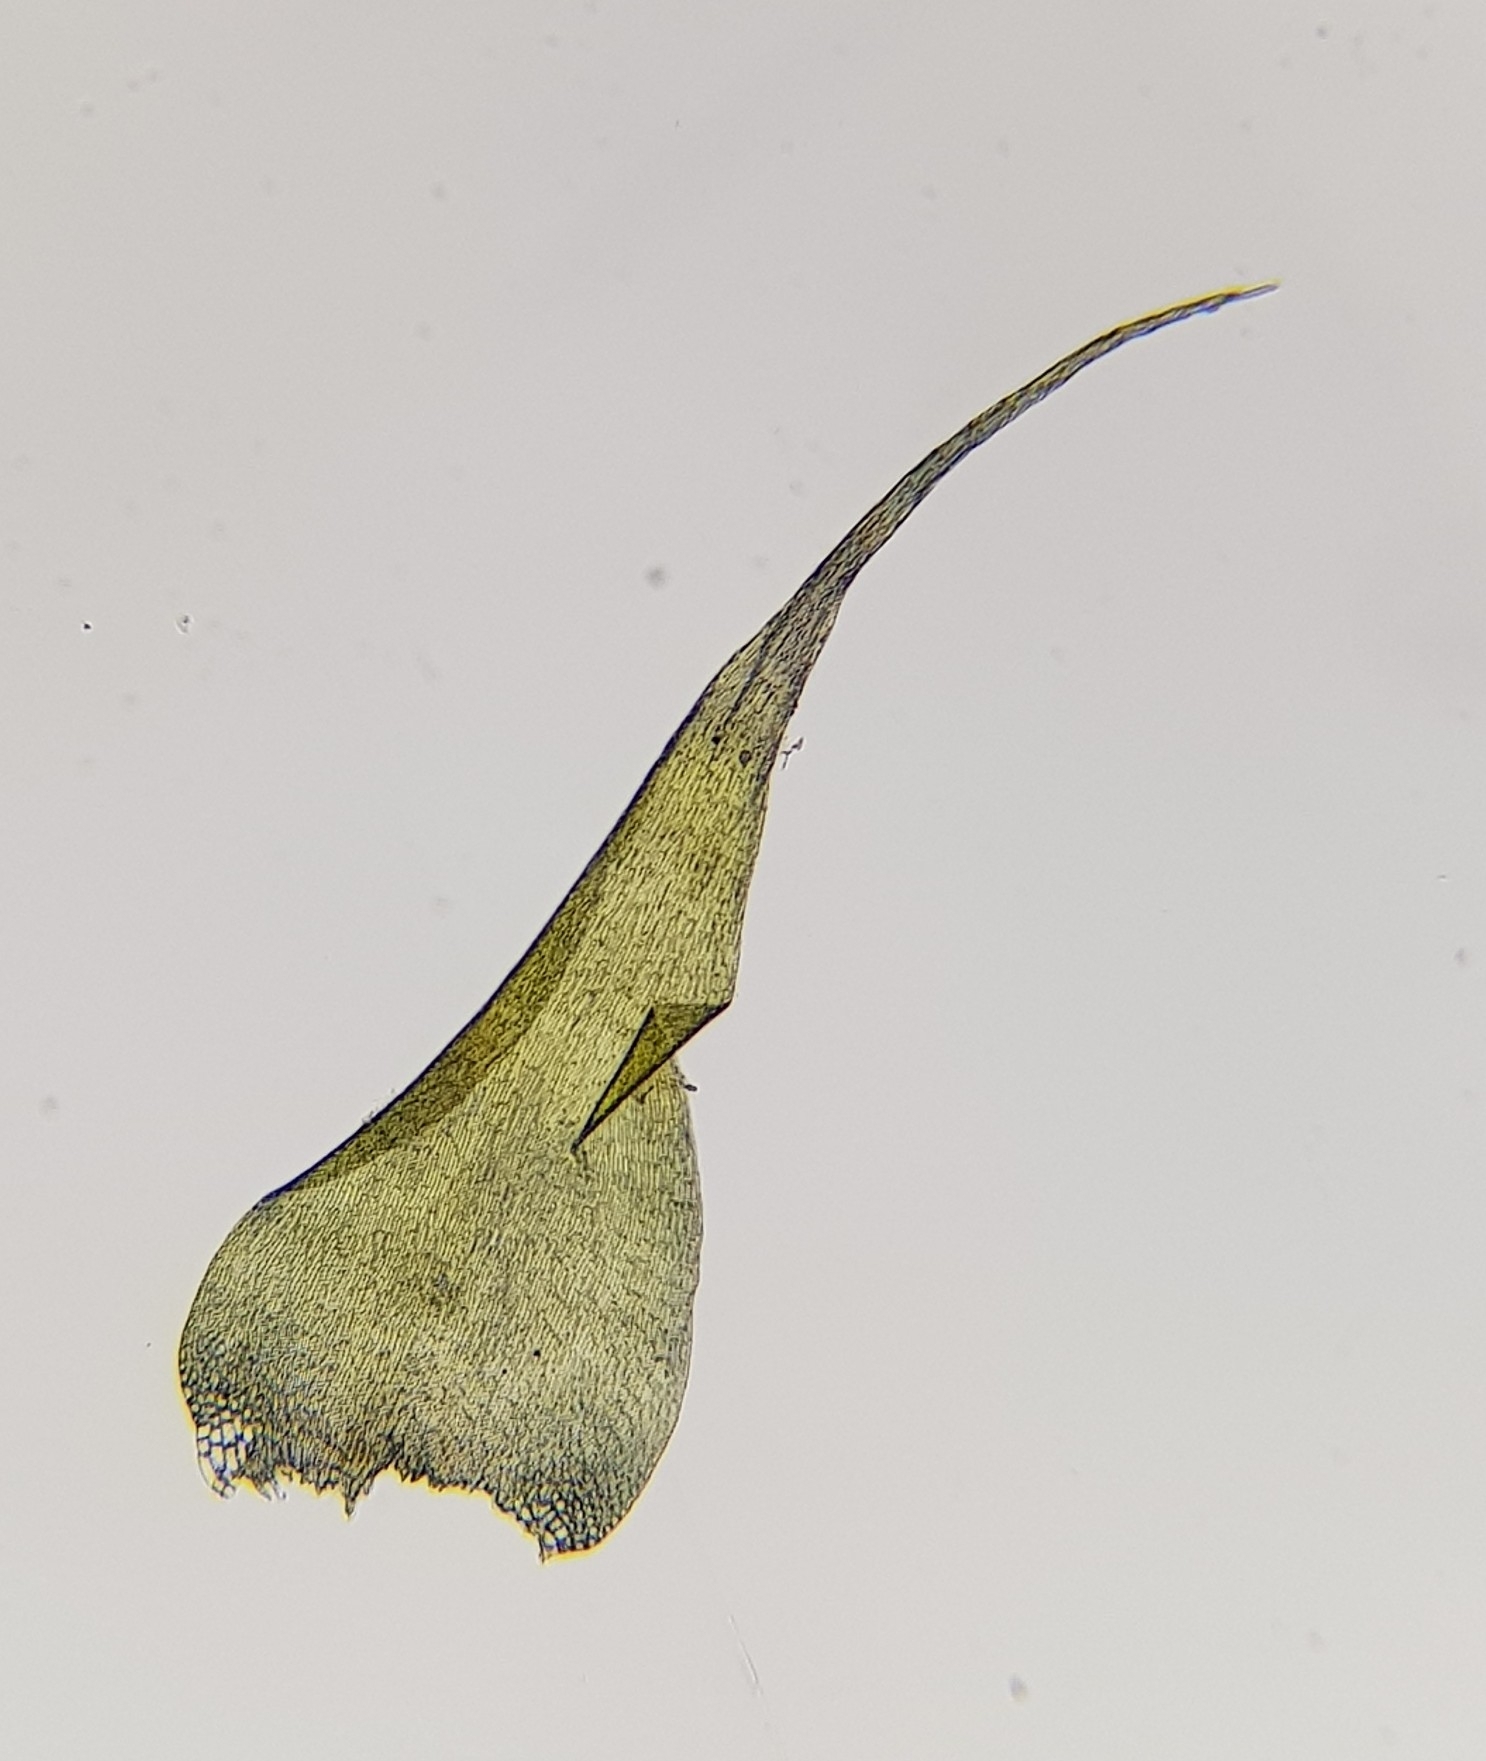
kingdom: Plantae
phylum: Bryophyta
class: Bryopsida
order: Hypnales
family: Amblystegiaceae
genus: Campylium
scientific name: Campylium protensum
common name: Dull starry fen moss
